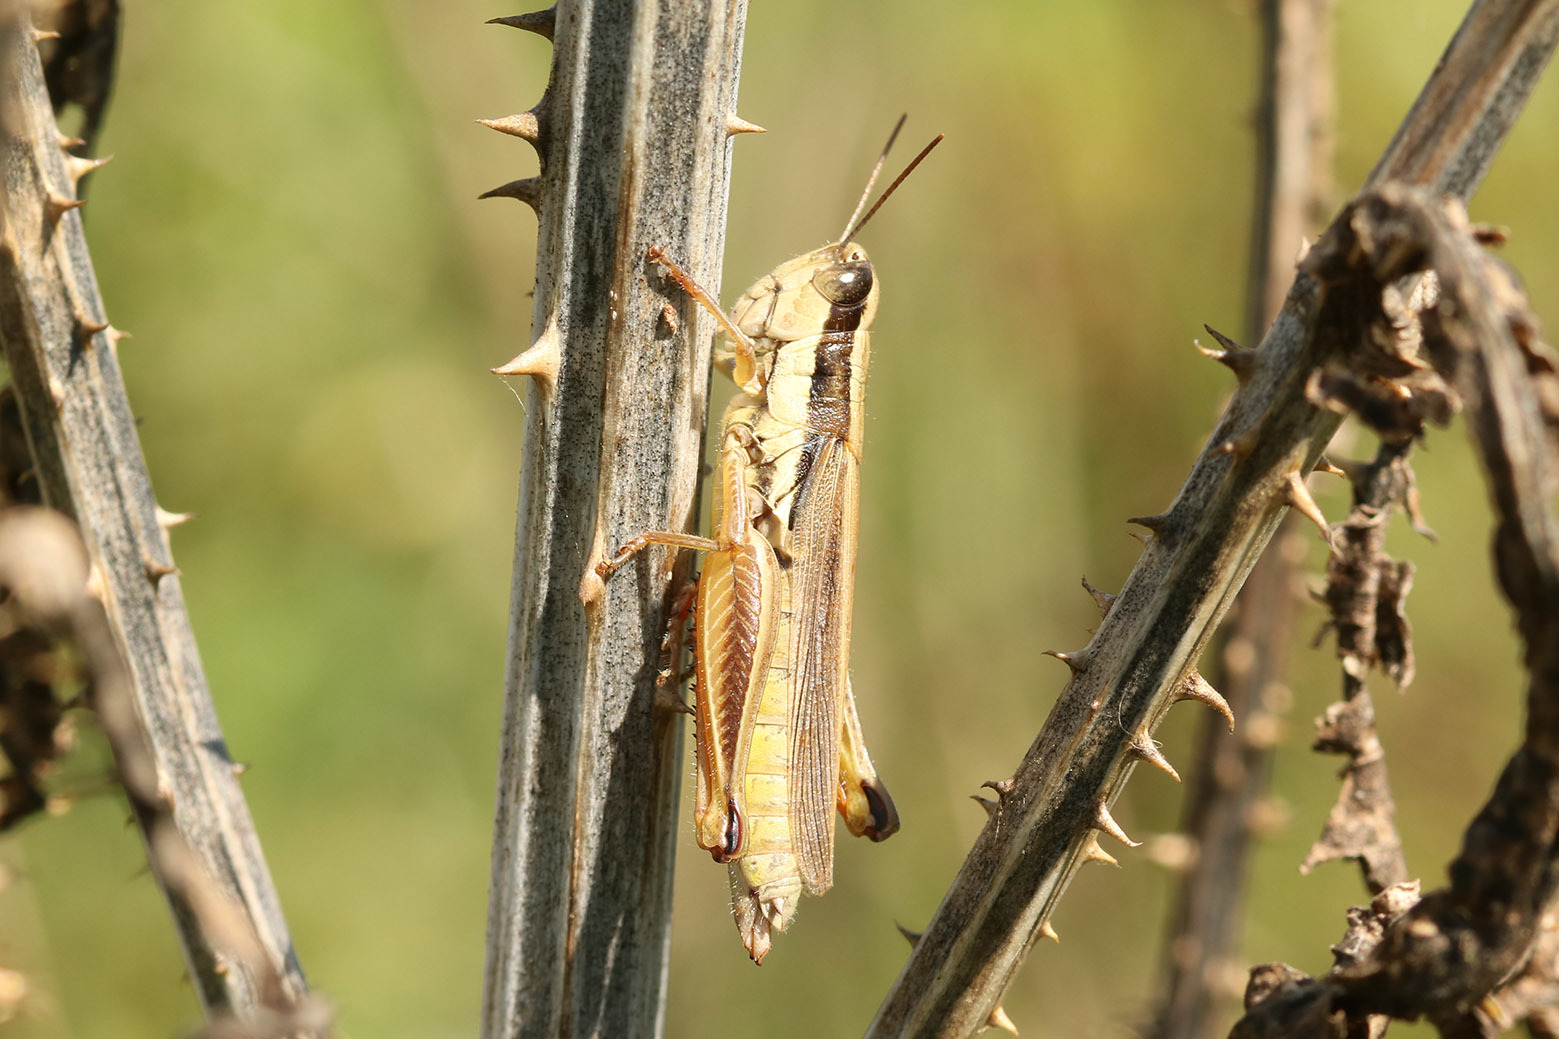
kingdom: Animalia
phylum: Arthropoda
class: Insecta
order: Orthoptera
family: Acrididae
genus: Scotussa
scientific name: Scotussa lemniscata
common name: Slender orange-legged grasshopper
